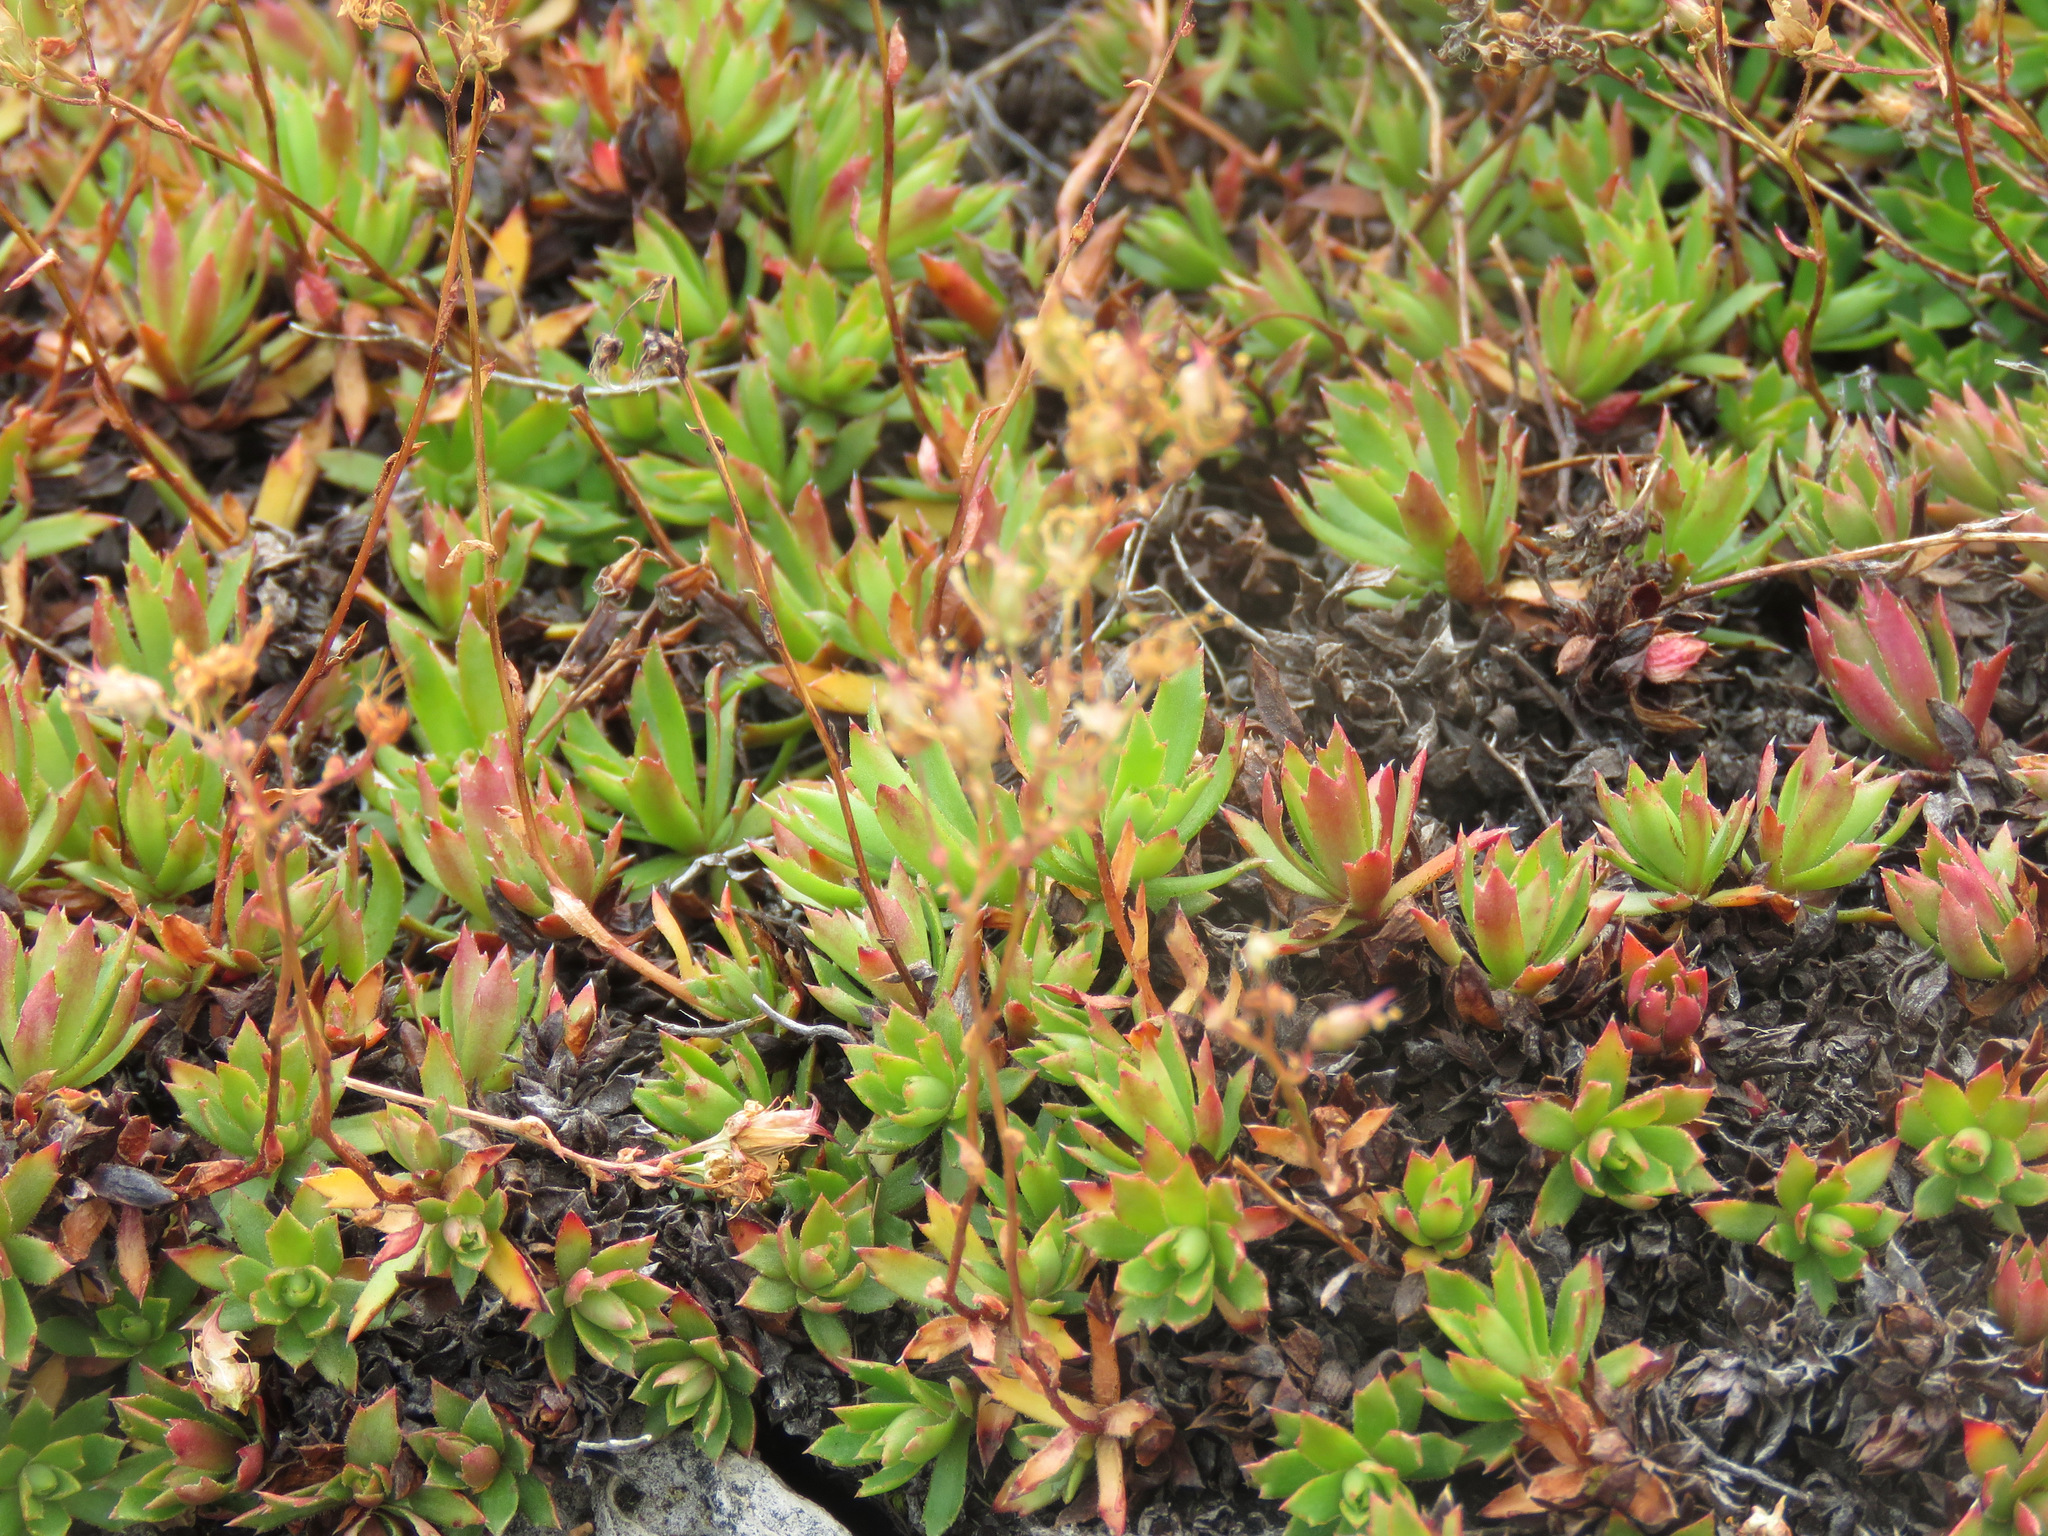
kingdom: Plantae
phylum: Tracheophyta
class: Magnoliopsida
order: Saxifragales
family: Saxifragaceae
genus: Saxifraga
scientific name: Saxifraga tricuspidata
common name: Prickly saxifrage
